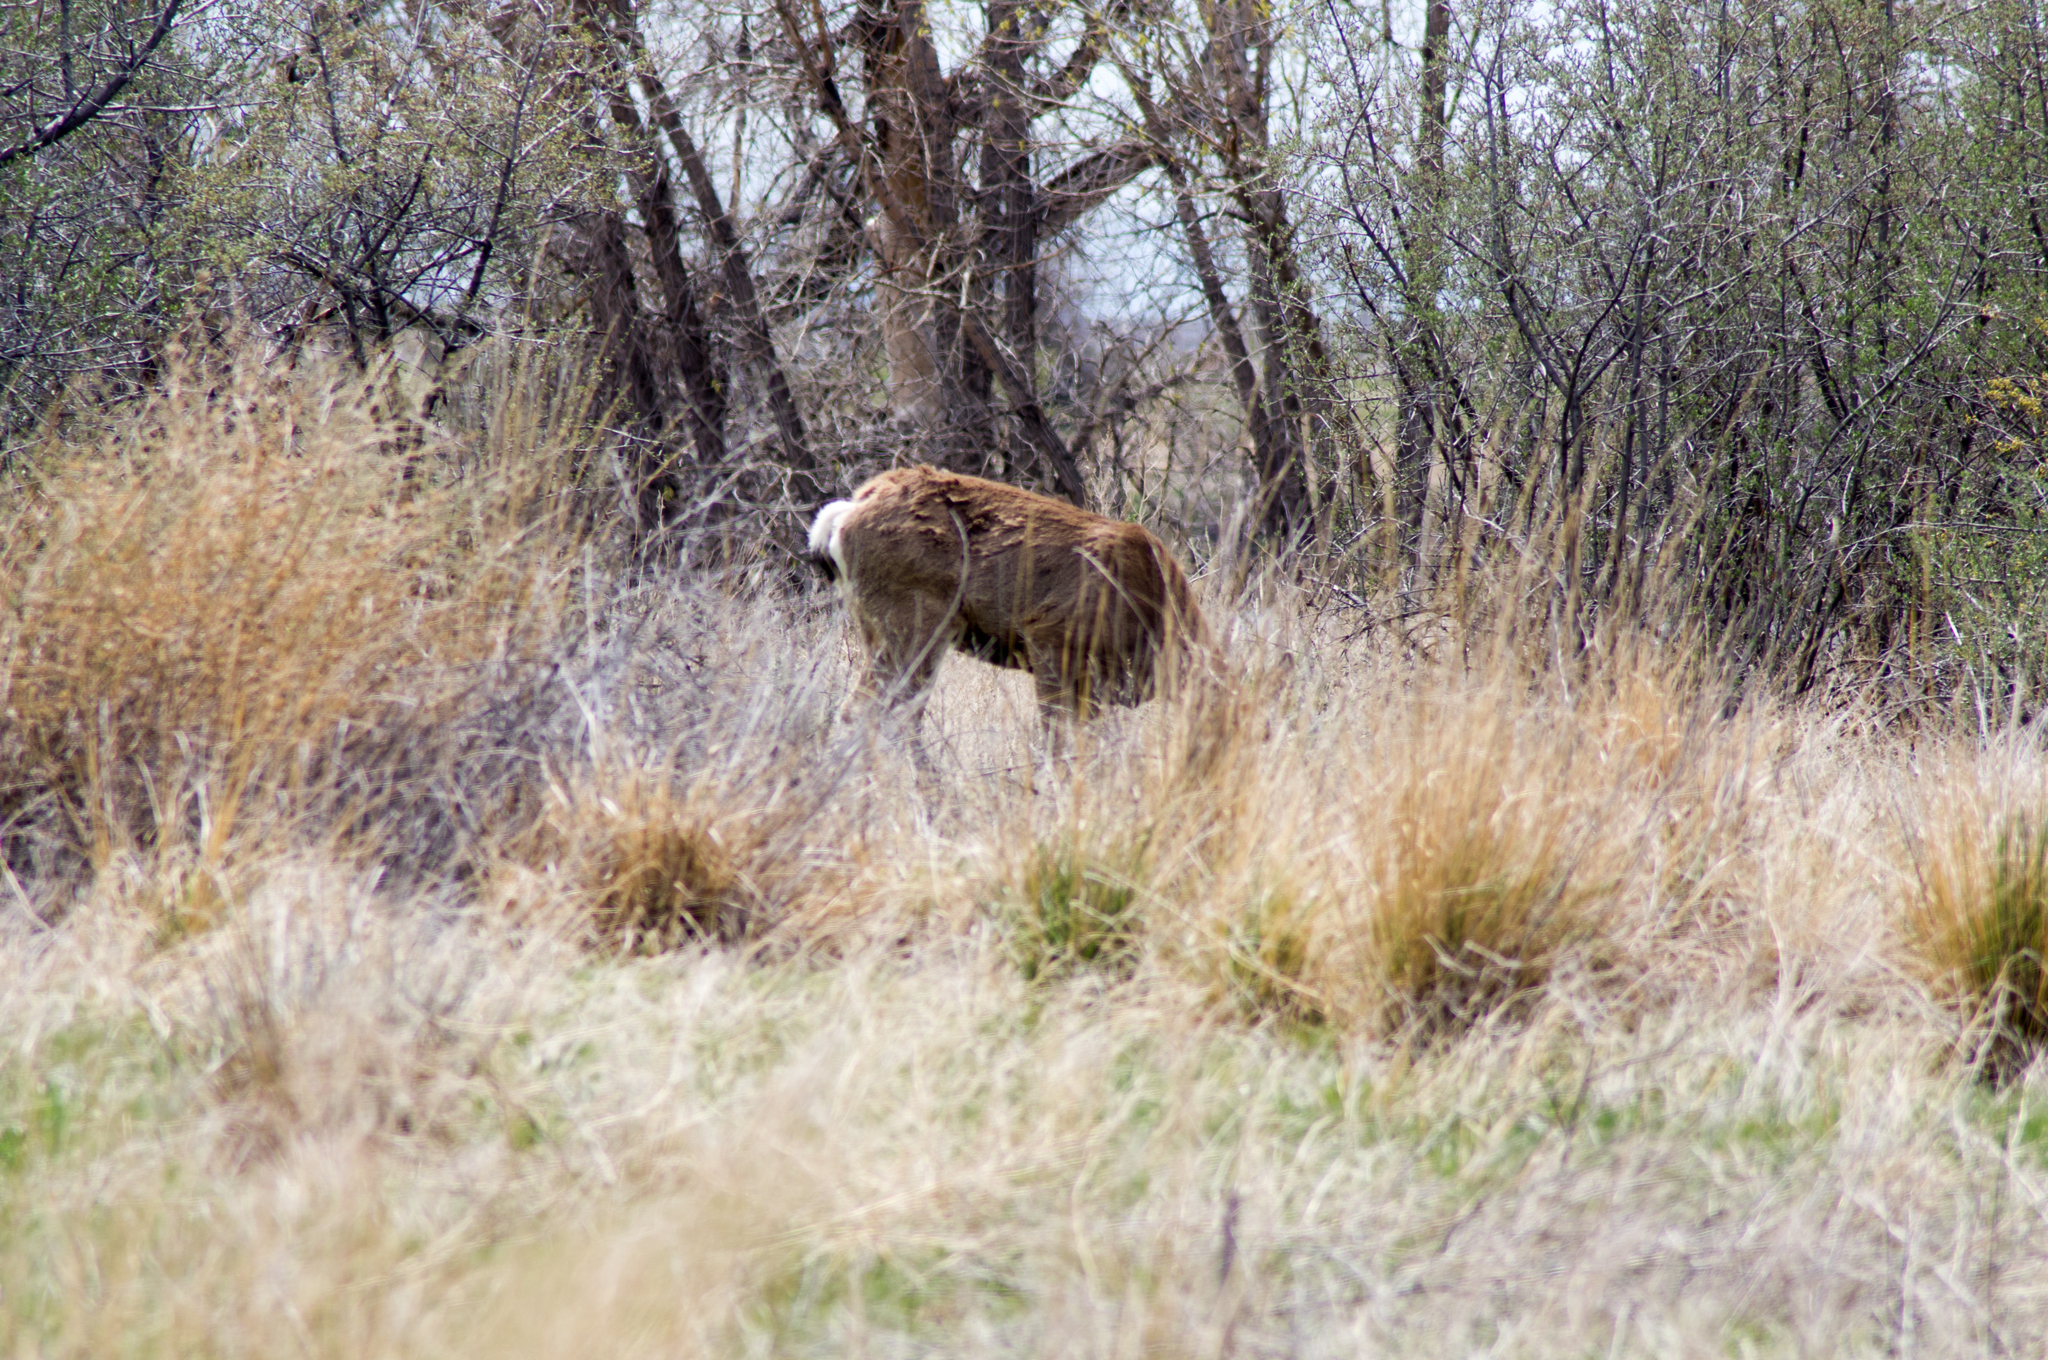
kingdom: Animalia
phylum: Chordata
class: Mammalia
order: Artiodactyla
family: Cervidae
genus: Odocoileus
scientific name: Odocoileus hemionus
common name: Mule deer
